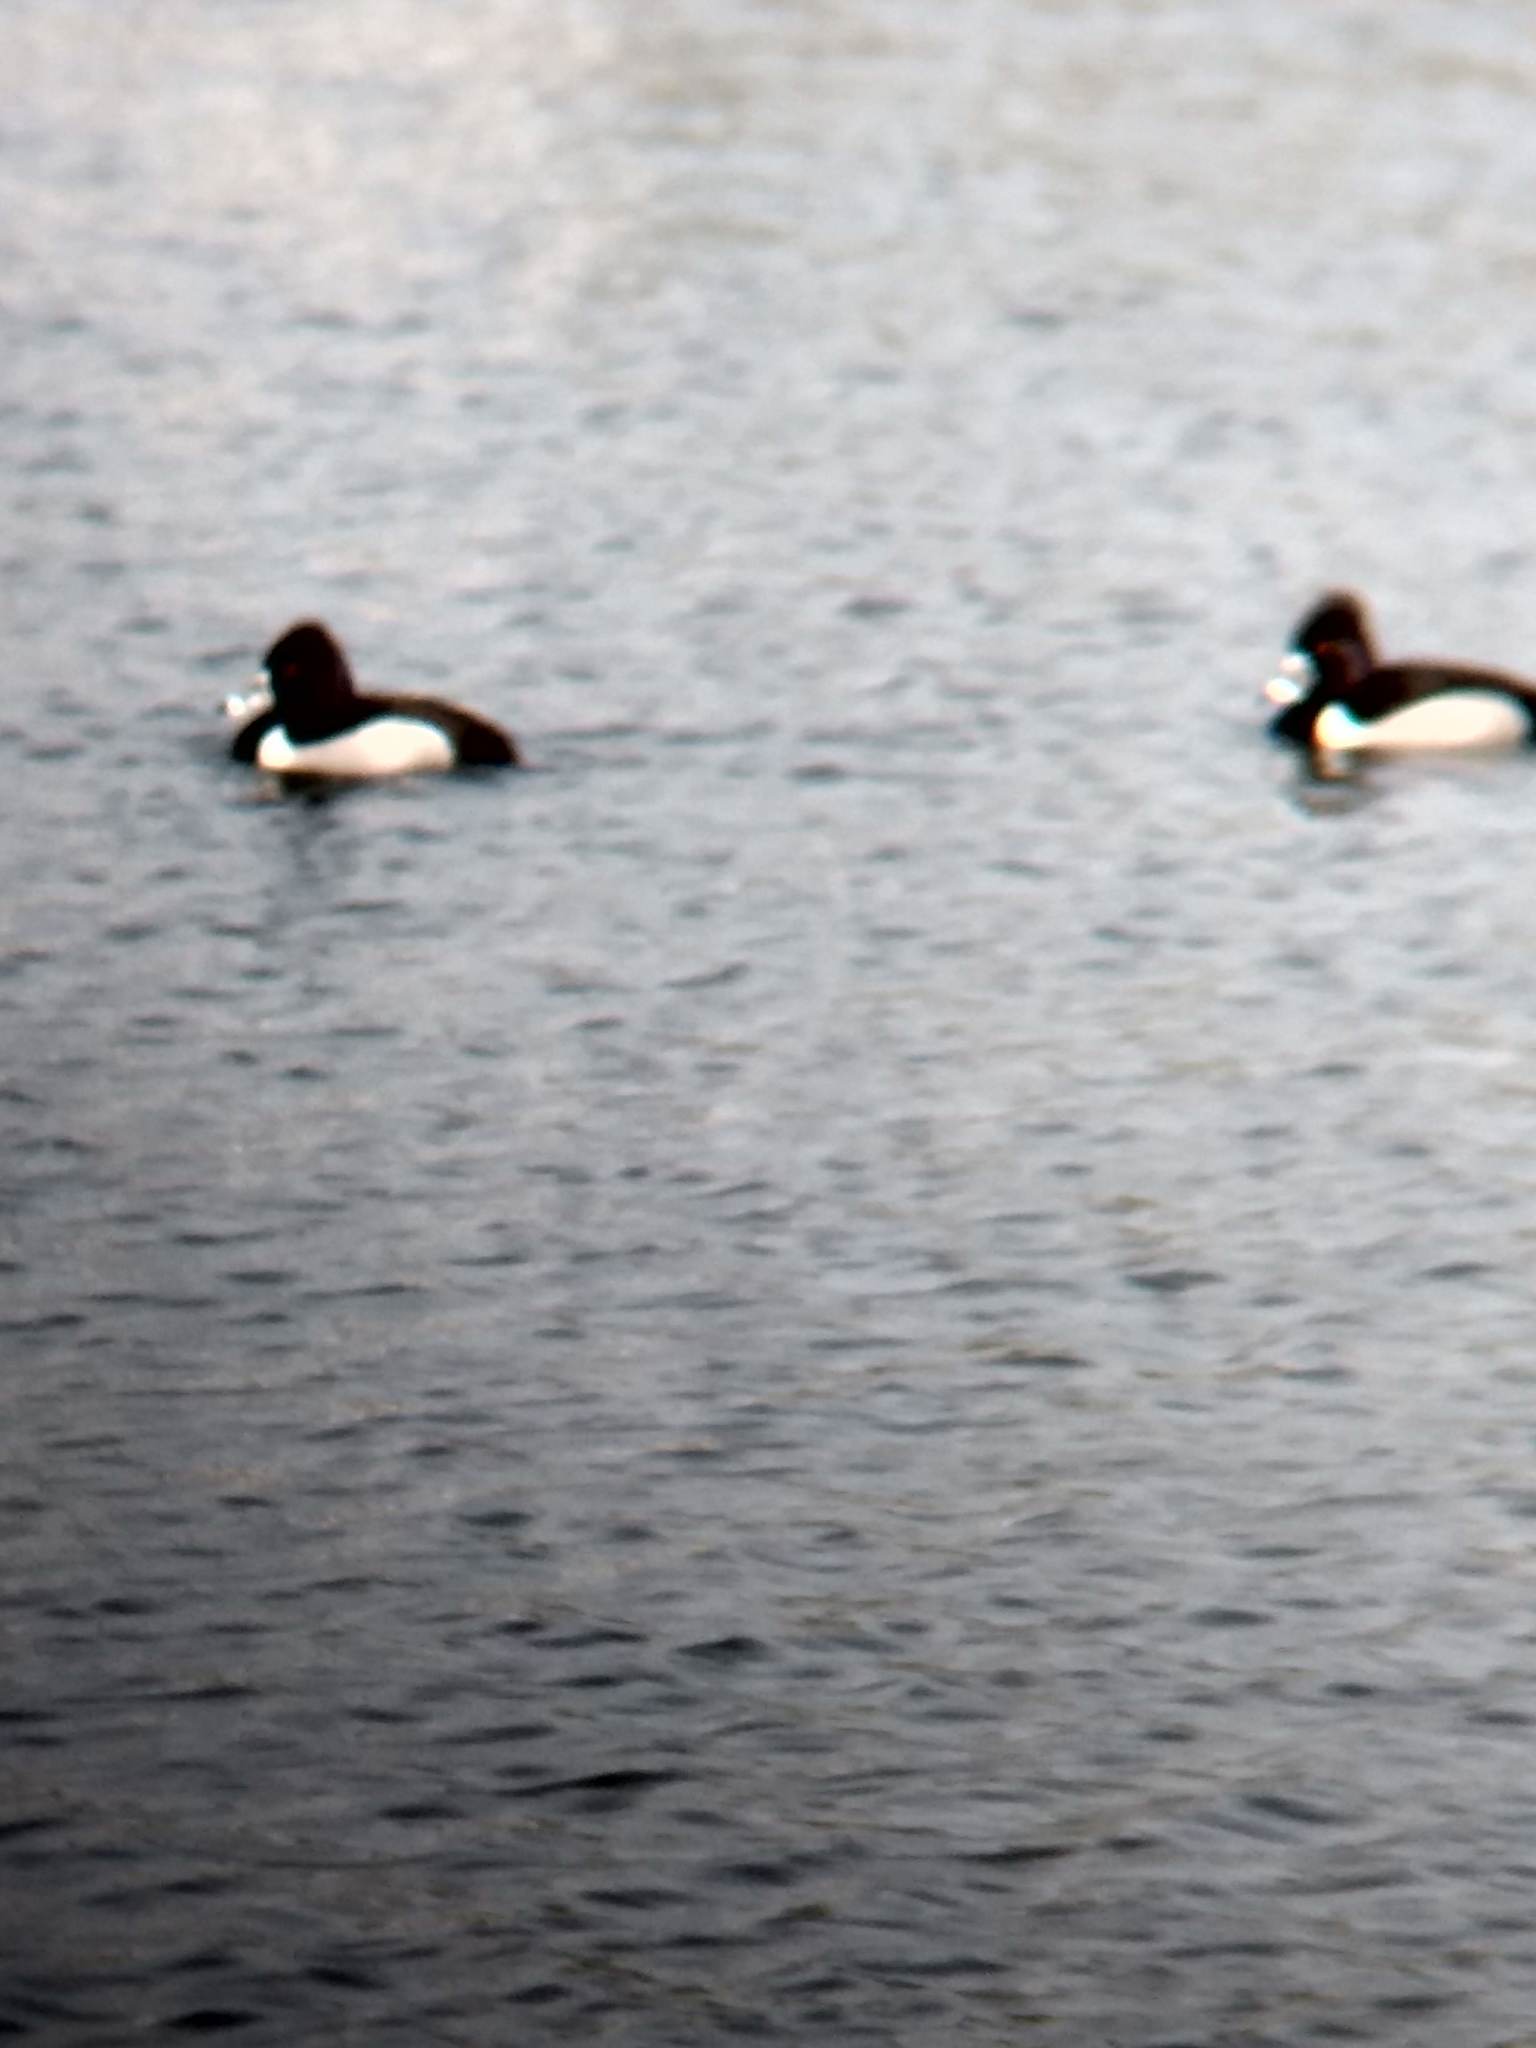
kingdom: Animalia
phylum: Chordata
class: Aves
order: Anseriformes
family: Anatidae
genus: Aythya
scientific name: Aythya collaris
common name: Ring-necked duck
